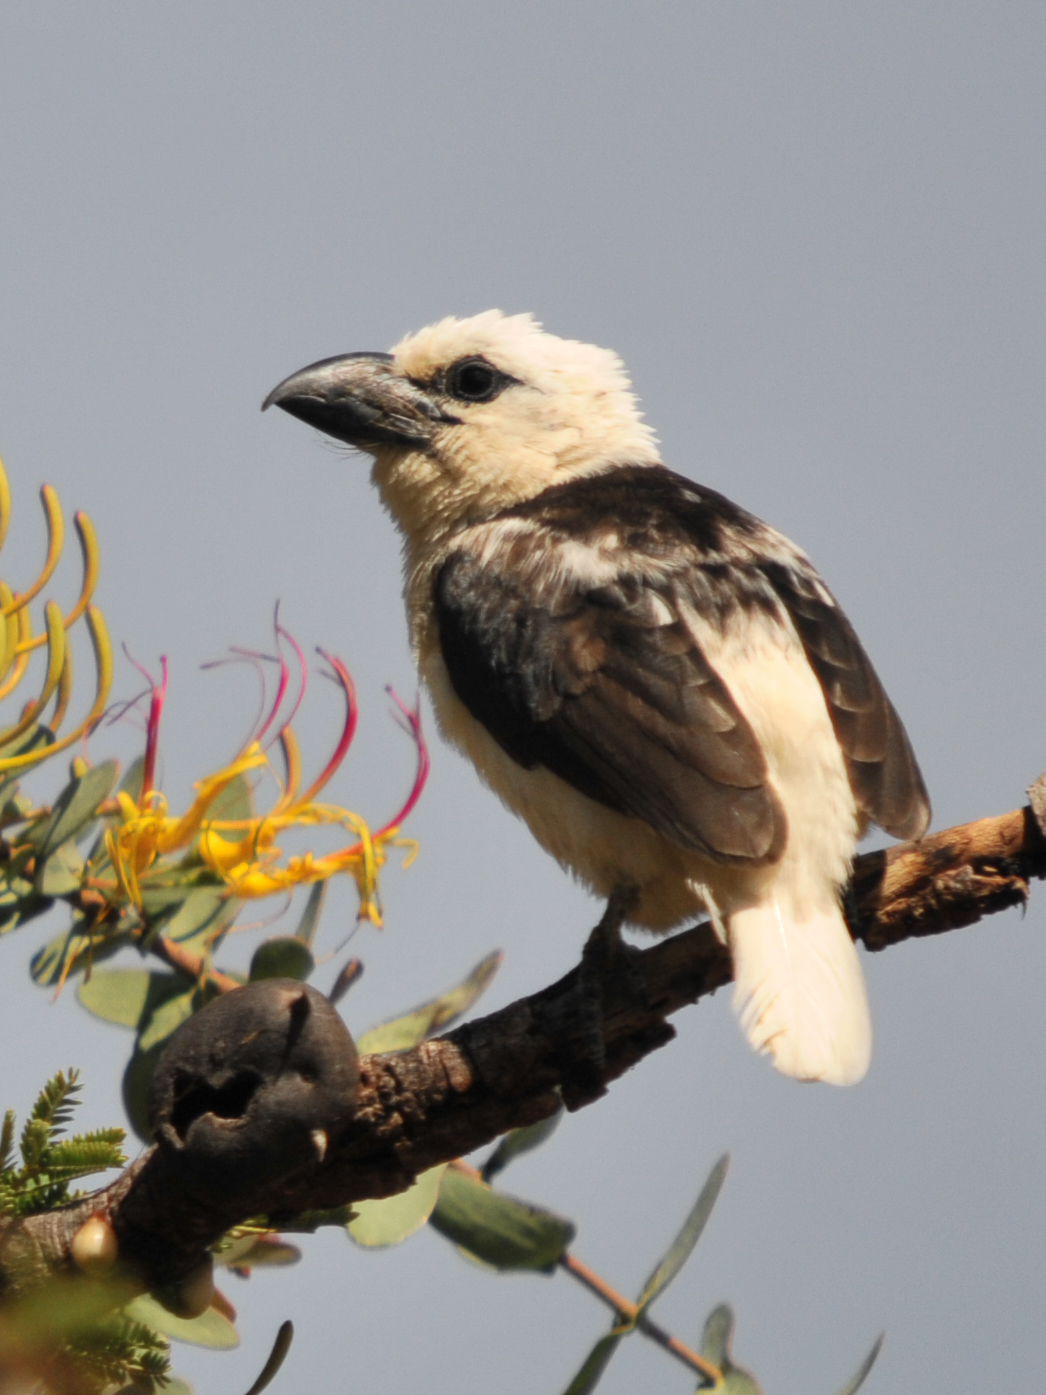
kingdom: Animalia
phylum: Chordata
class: Aves
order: Piciformes
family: Lybiidae
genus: Lybius
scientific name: Lybius leucocephalus
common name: White-headed barbet
